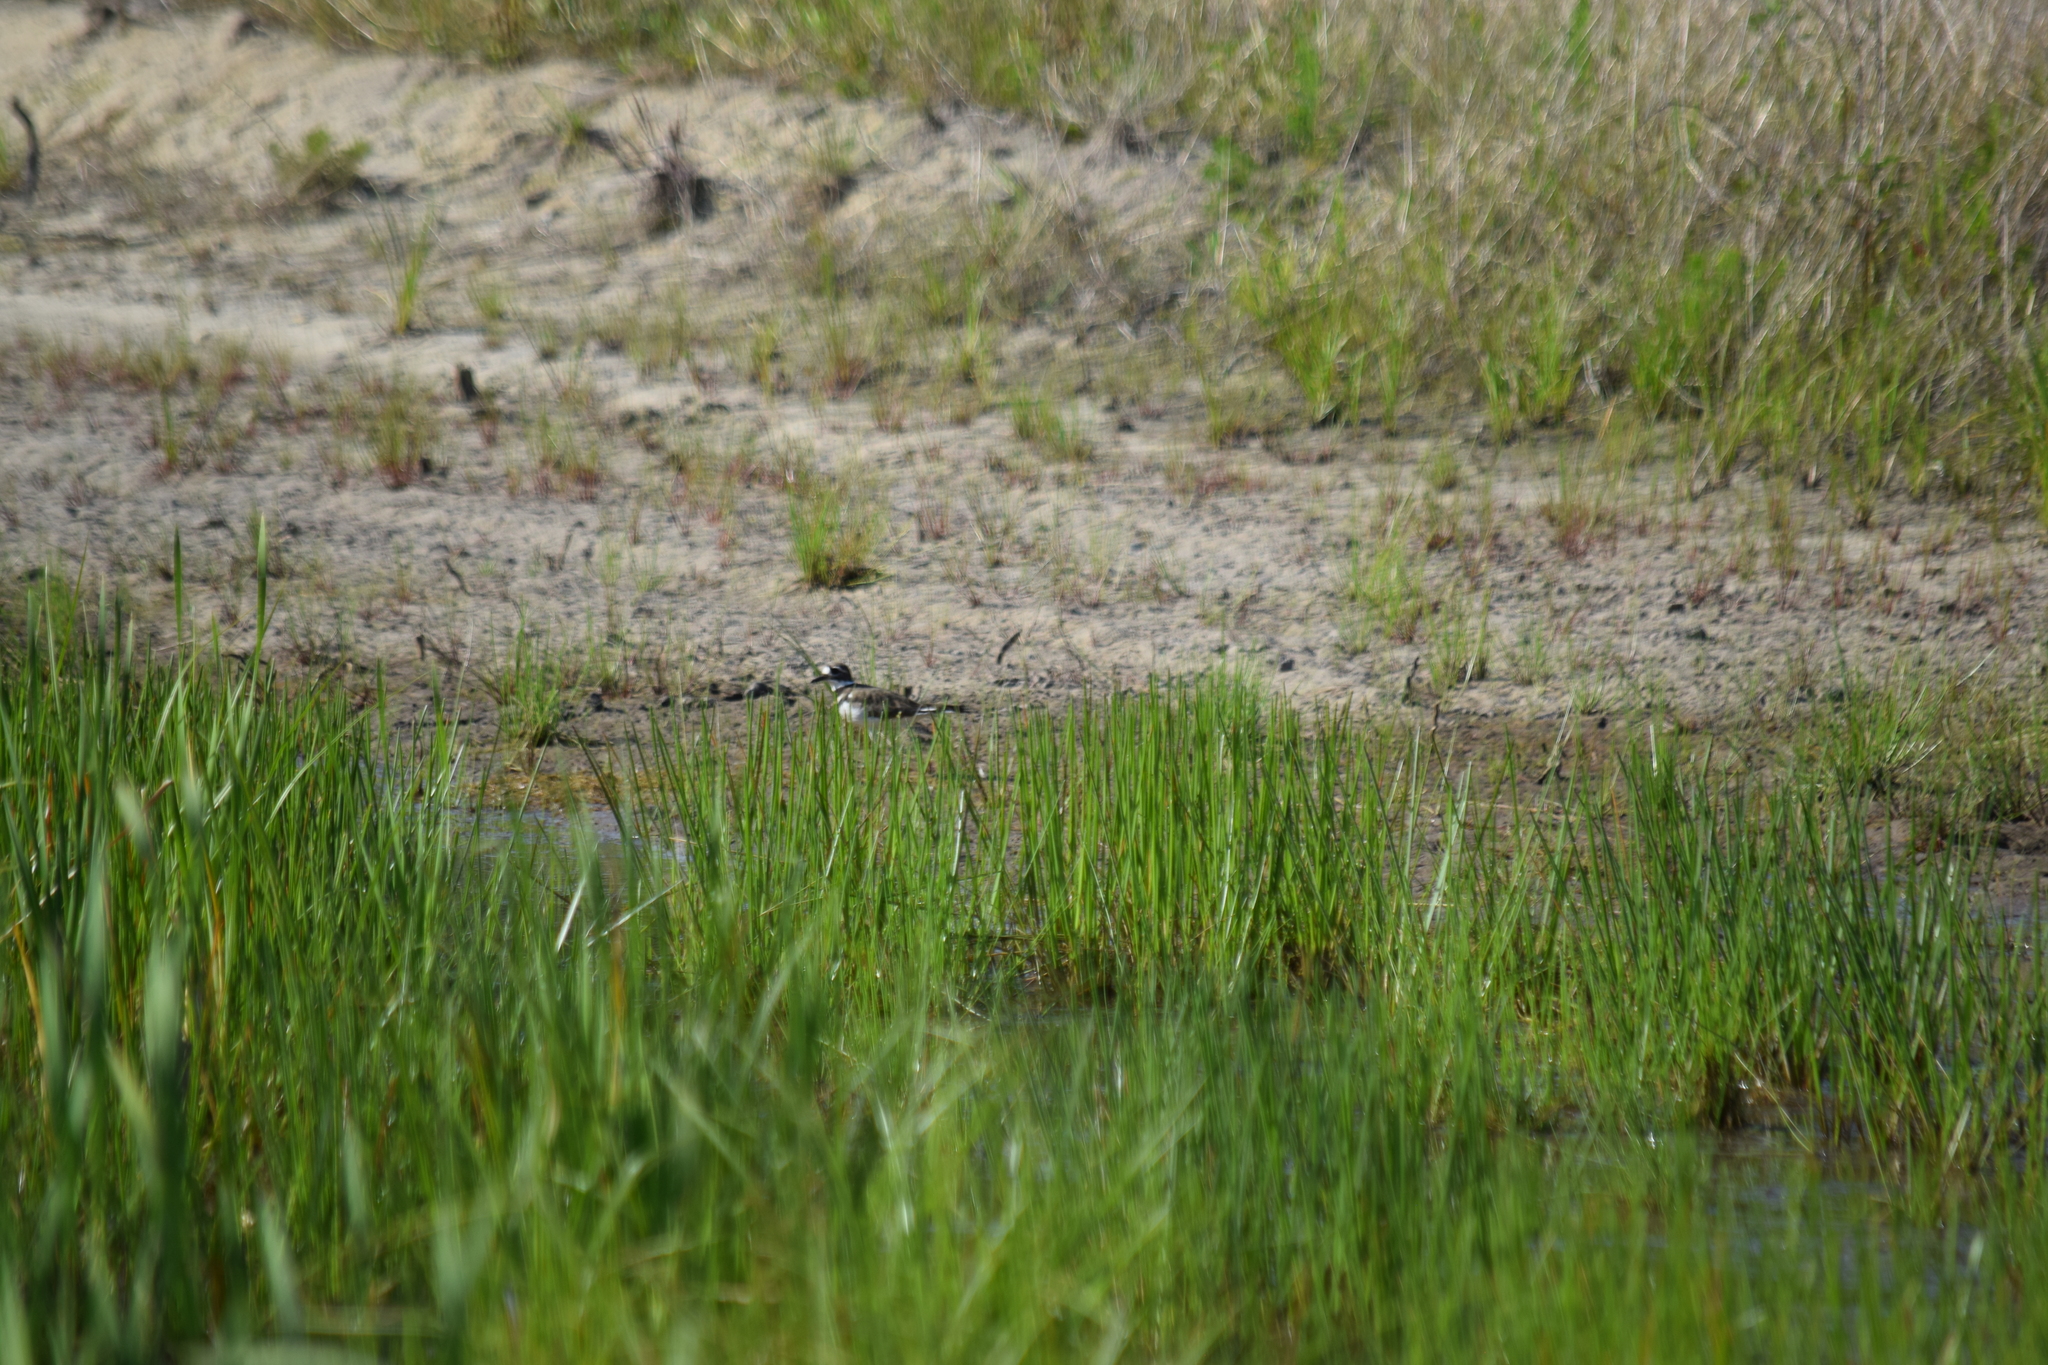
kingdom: Animalia
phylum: Chordata
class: Aves
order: Charadriiformes
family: Charadriidae
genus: Charadrius
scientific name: Charadrius vociferus
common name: Killdeer
